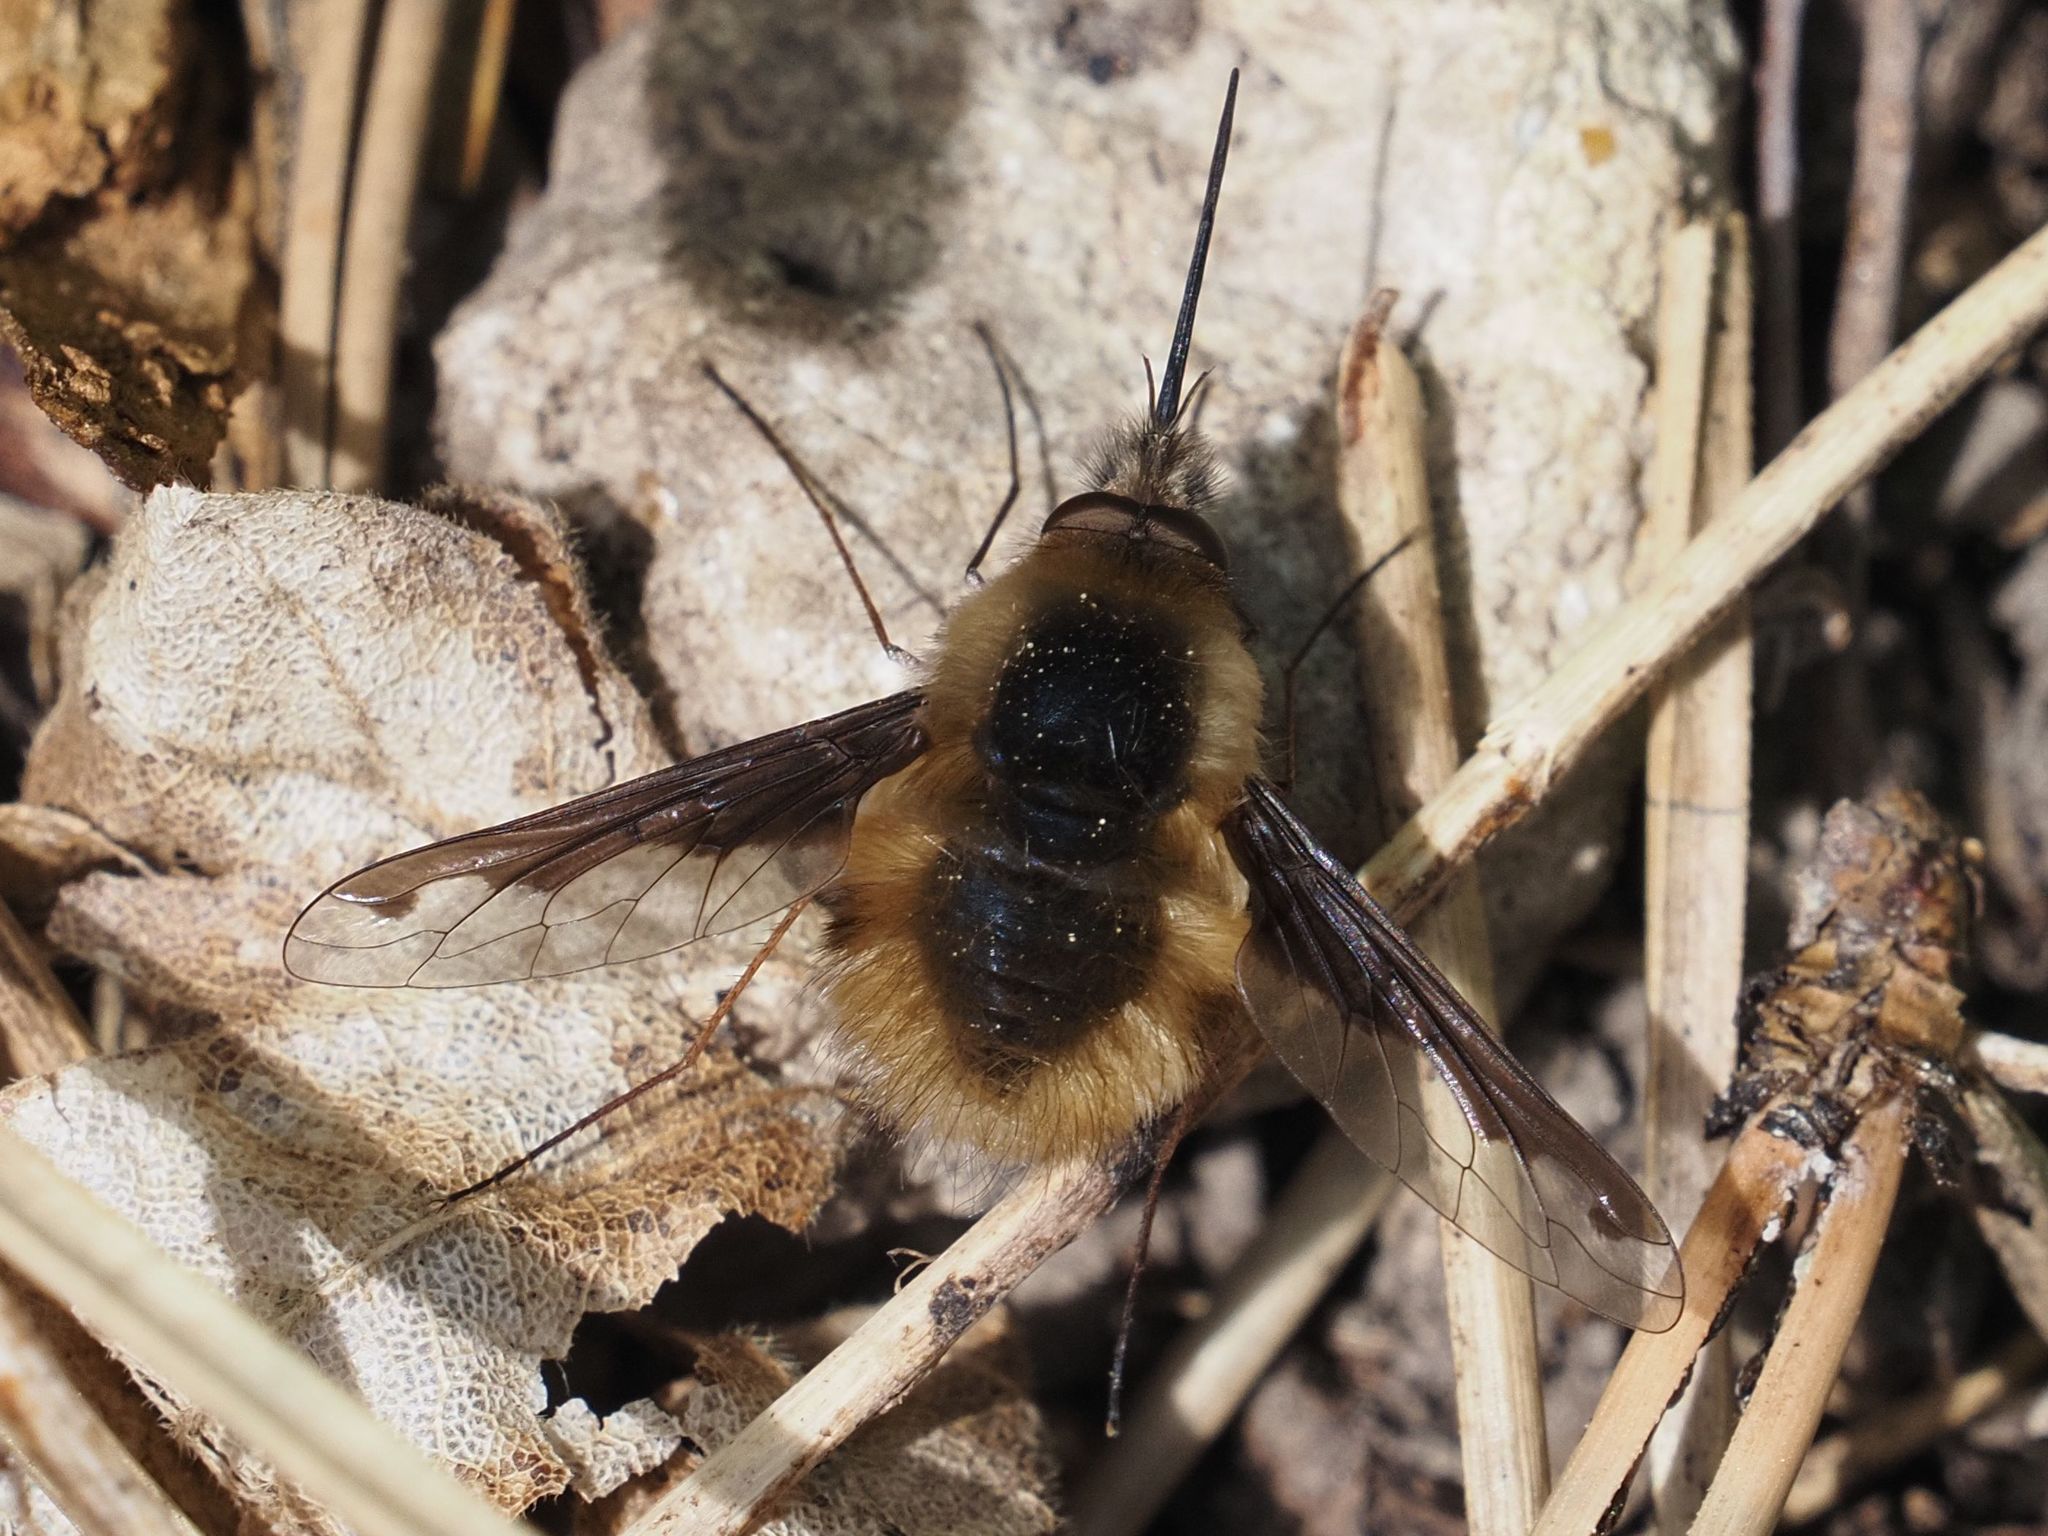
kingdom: Animalia
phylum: Arthropoda
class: Insecta
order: Diptera
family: Bombyliidae
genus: Bombylius
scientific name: Bombylius major
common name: Bee fly
